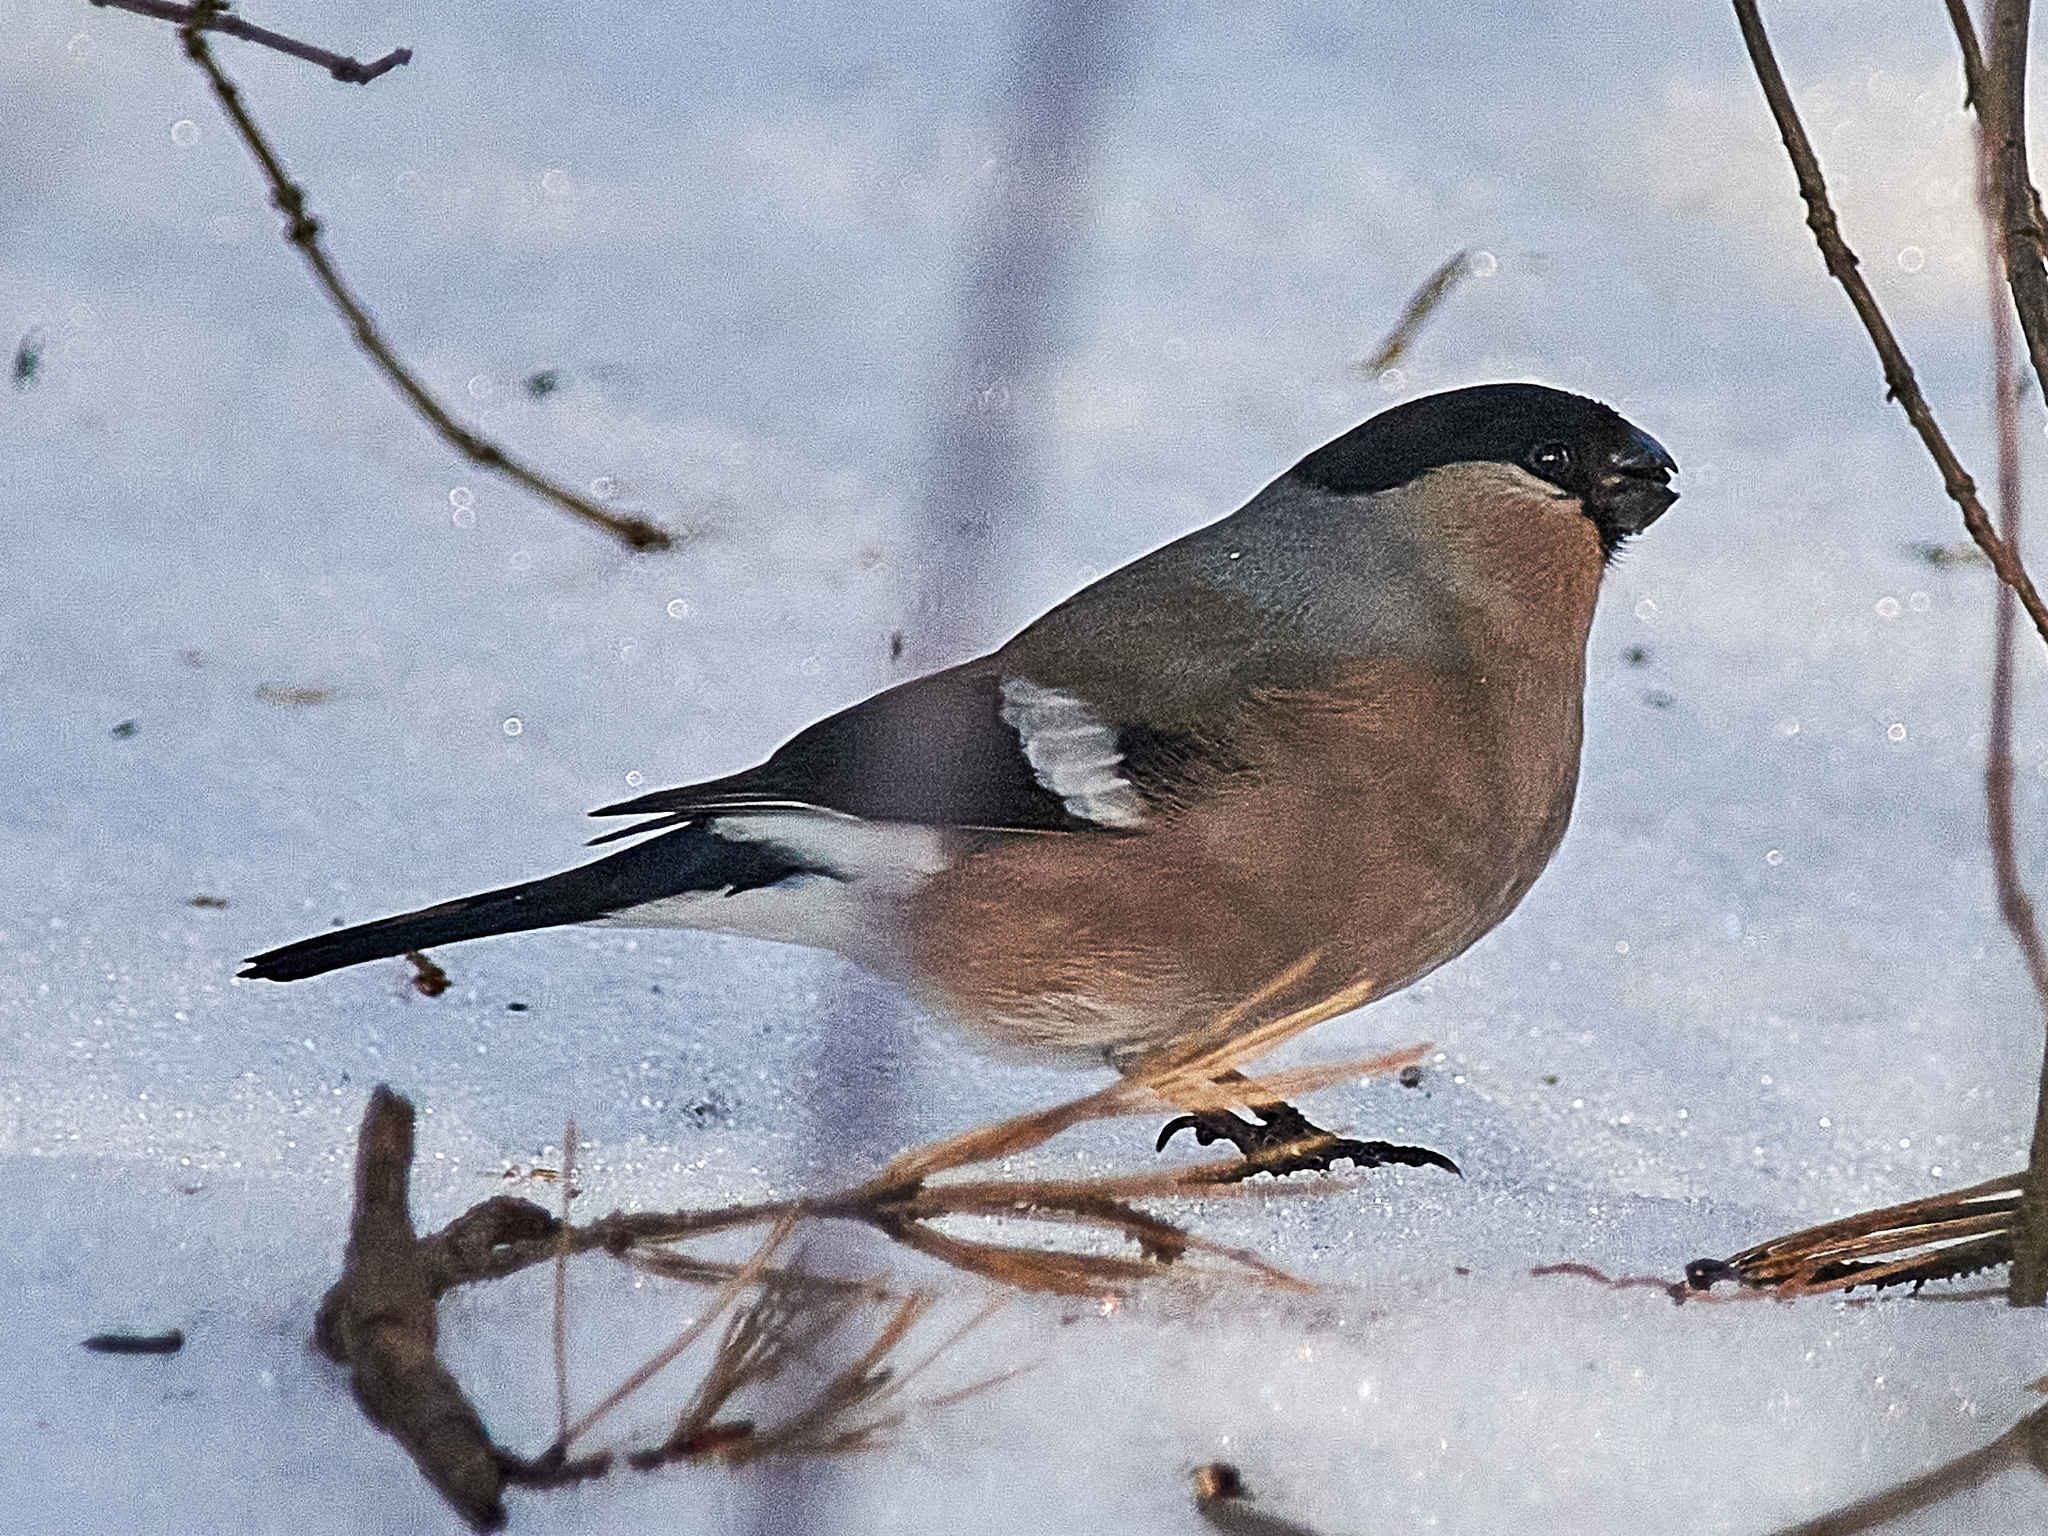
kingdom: Animalia
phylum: Chordata
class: Aves
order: Passeriformes
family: Fringillidae
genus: Pyrrhula
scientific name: Pyrrhula pyrrhula
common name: Eurasian bullfinch
